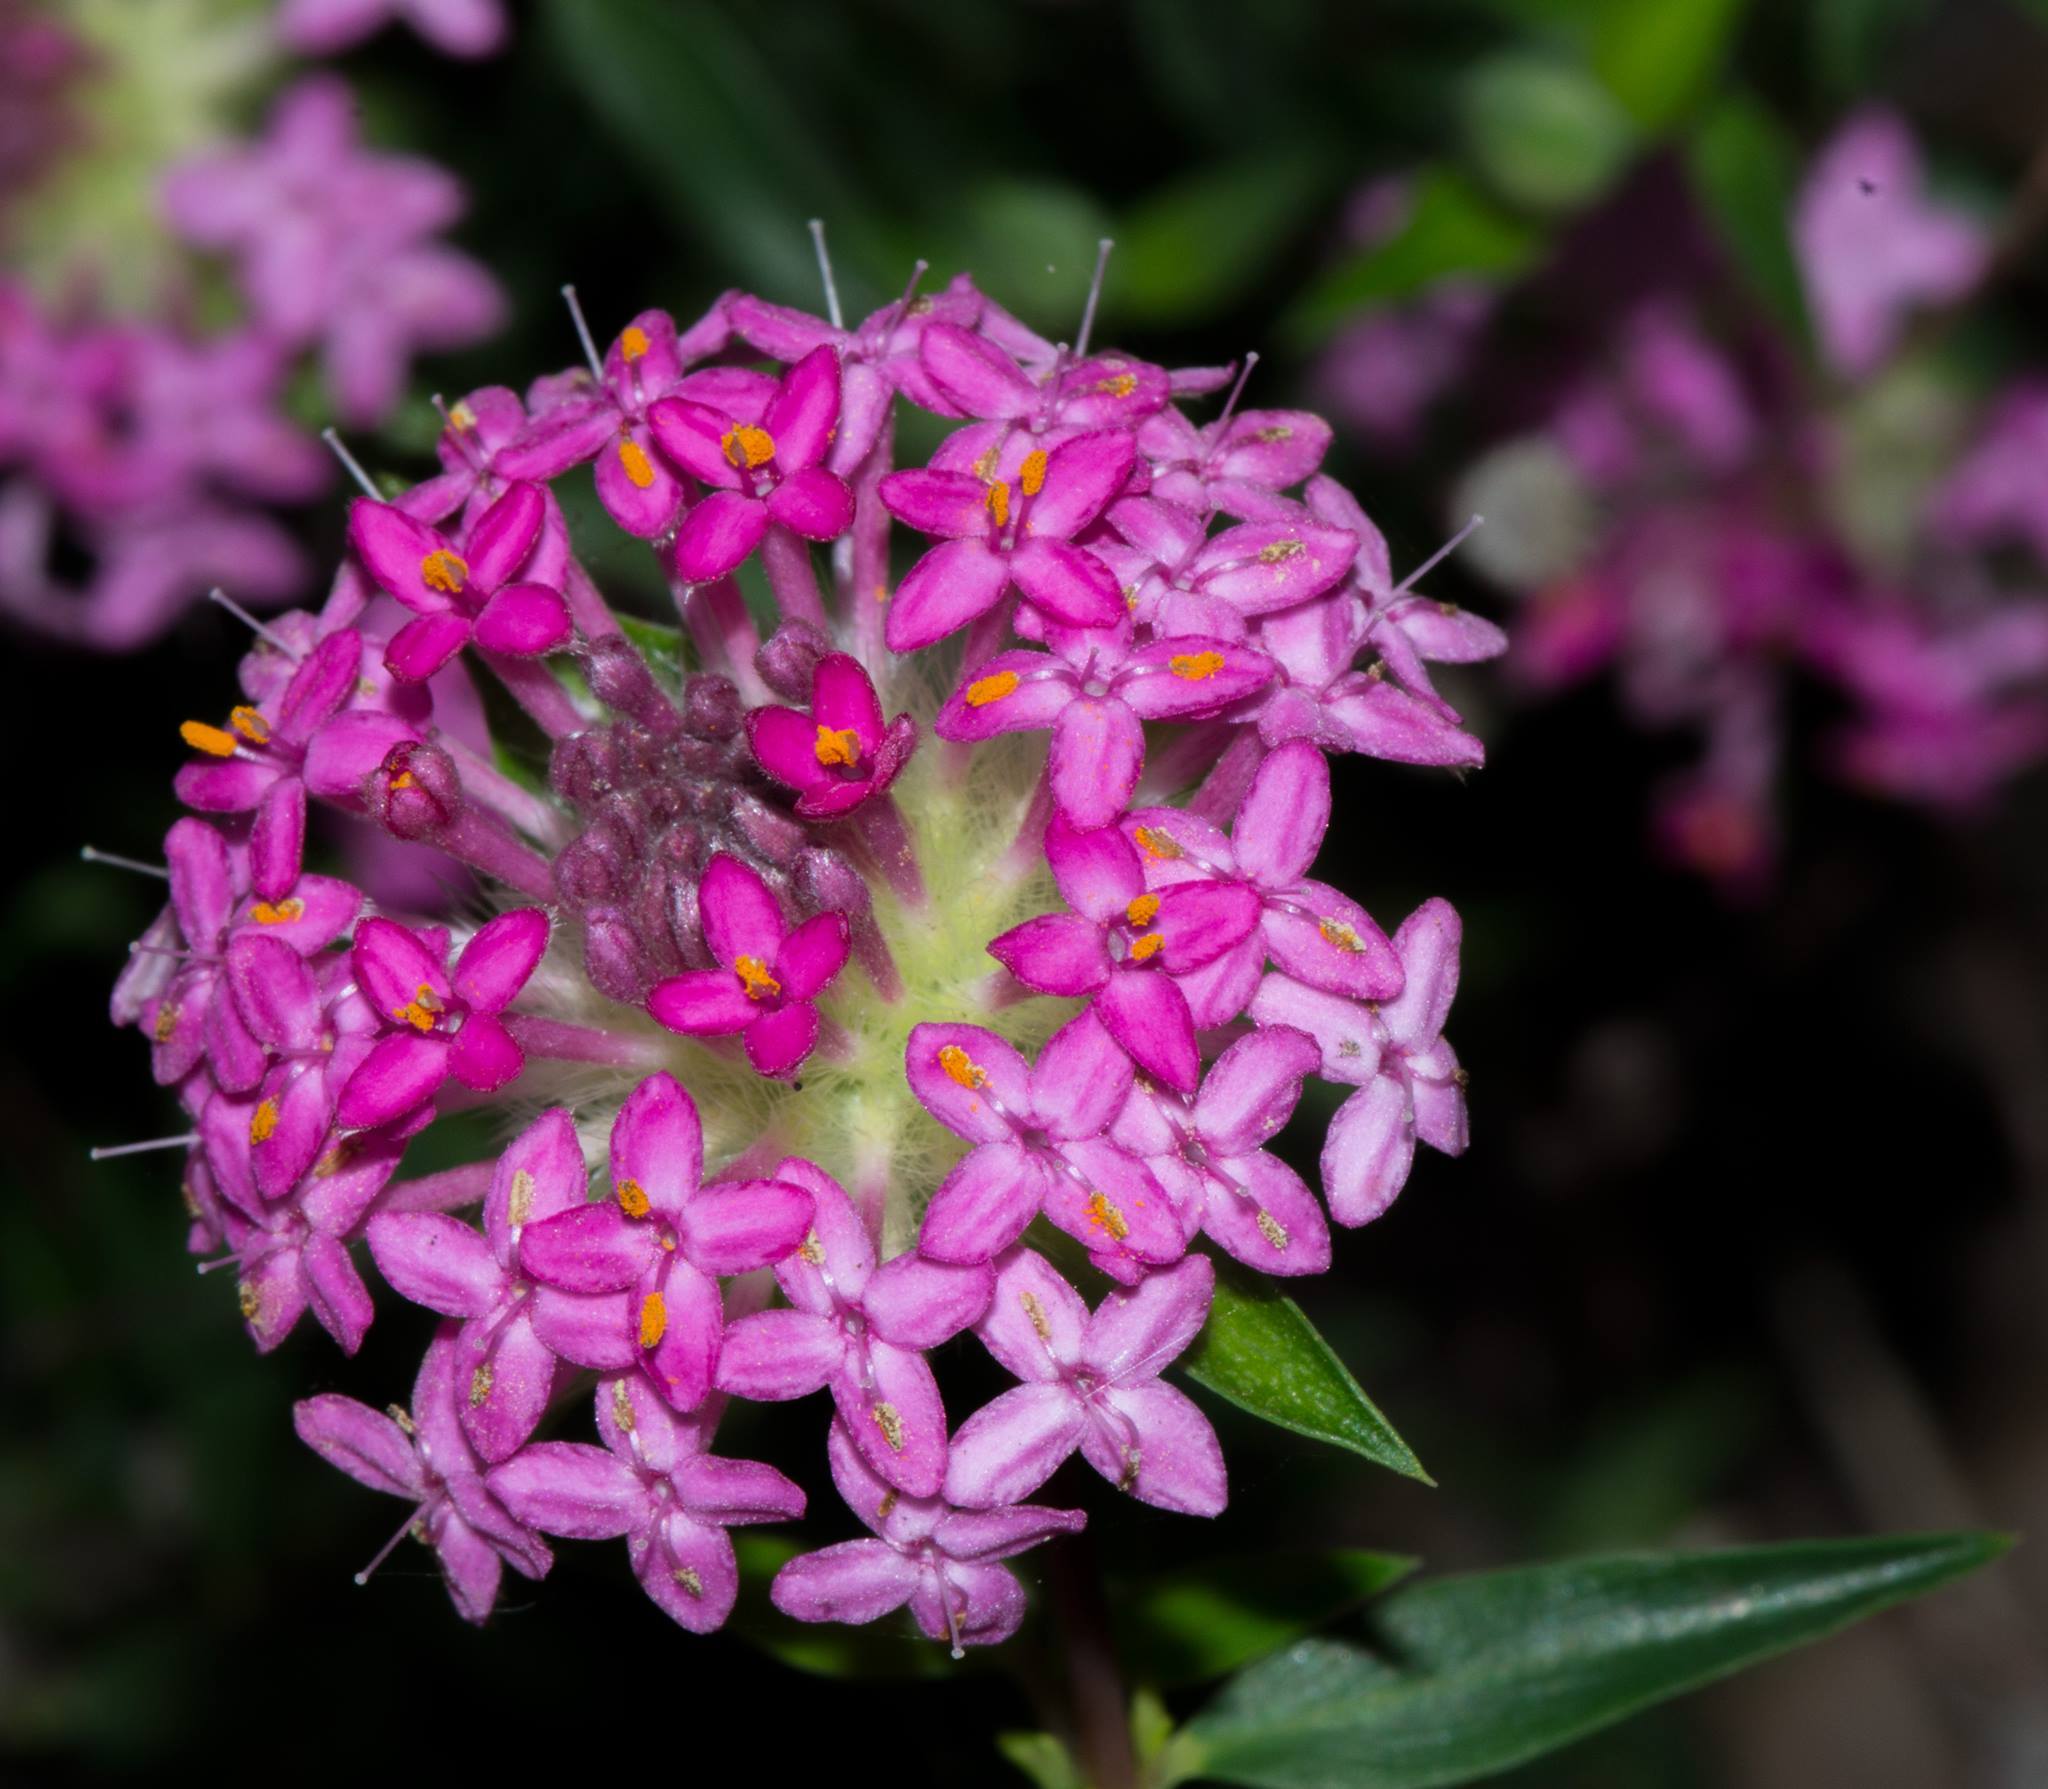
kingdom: Plantae
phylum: Tracheophyta
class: Magnoliopsida
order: Malvales
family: Thymelaeaceae
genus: Pimelea
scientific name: Pimelea rosea
